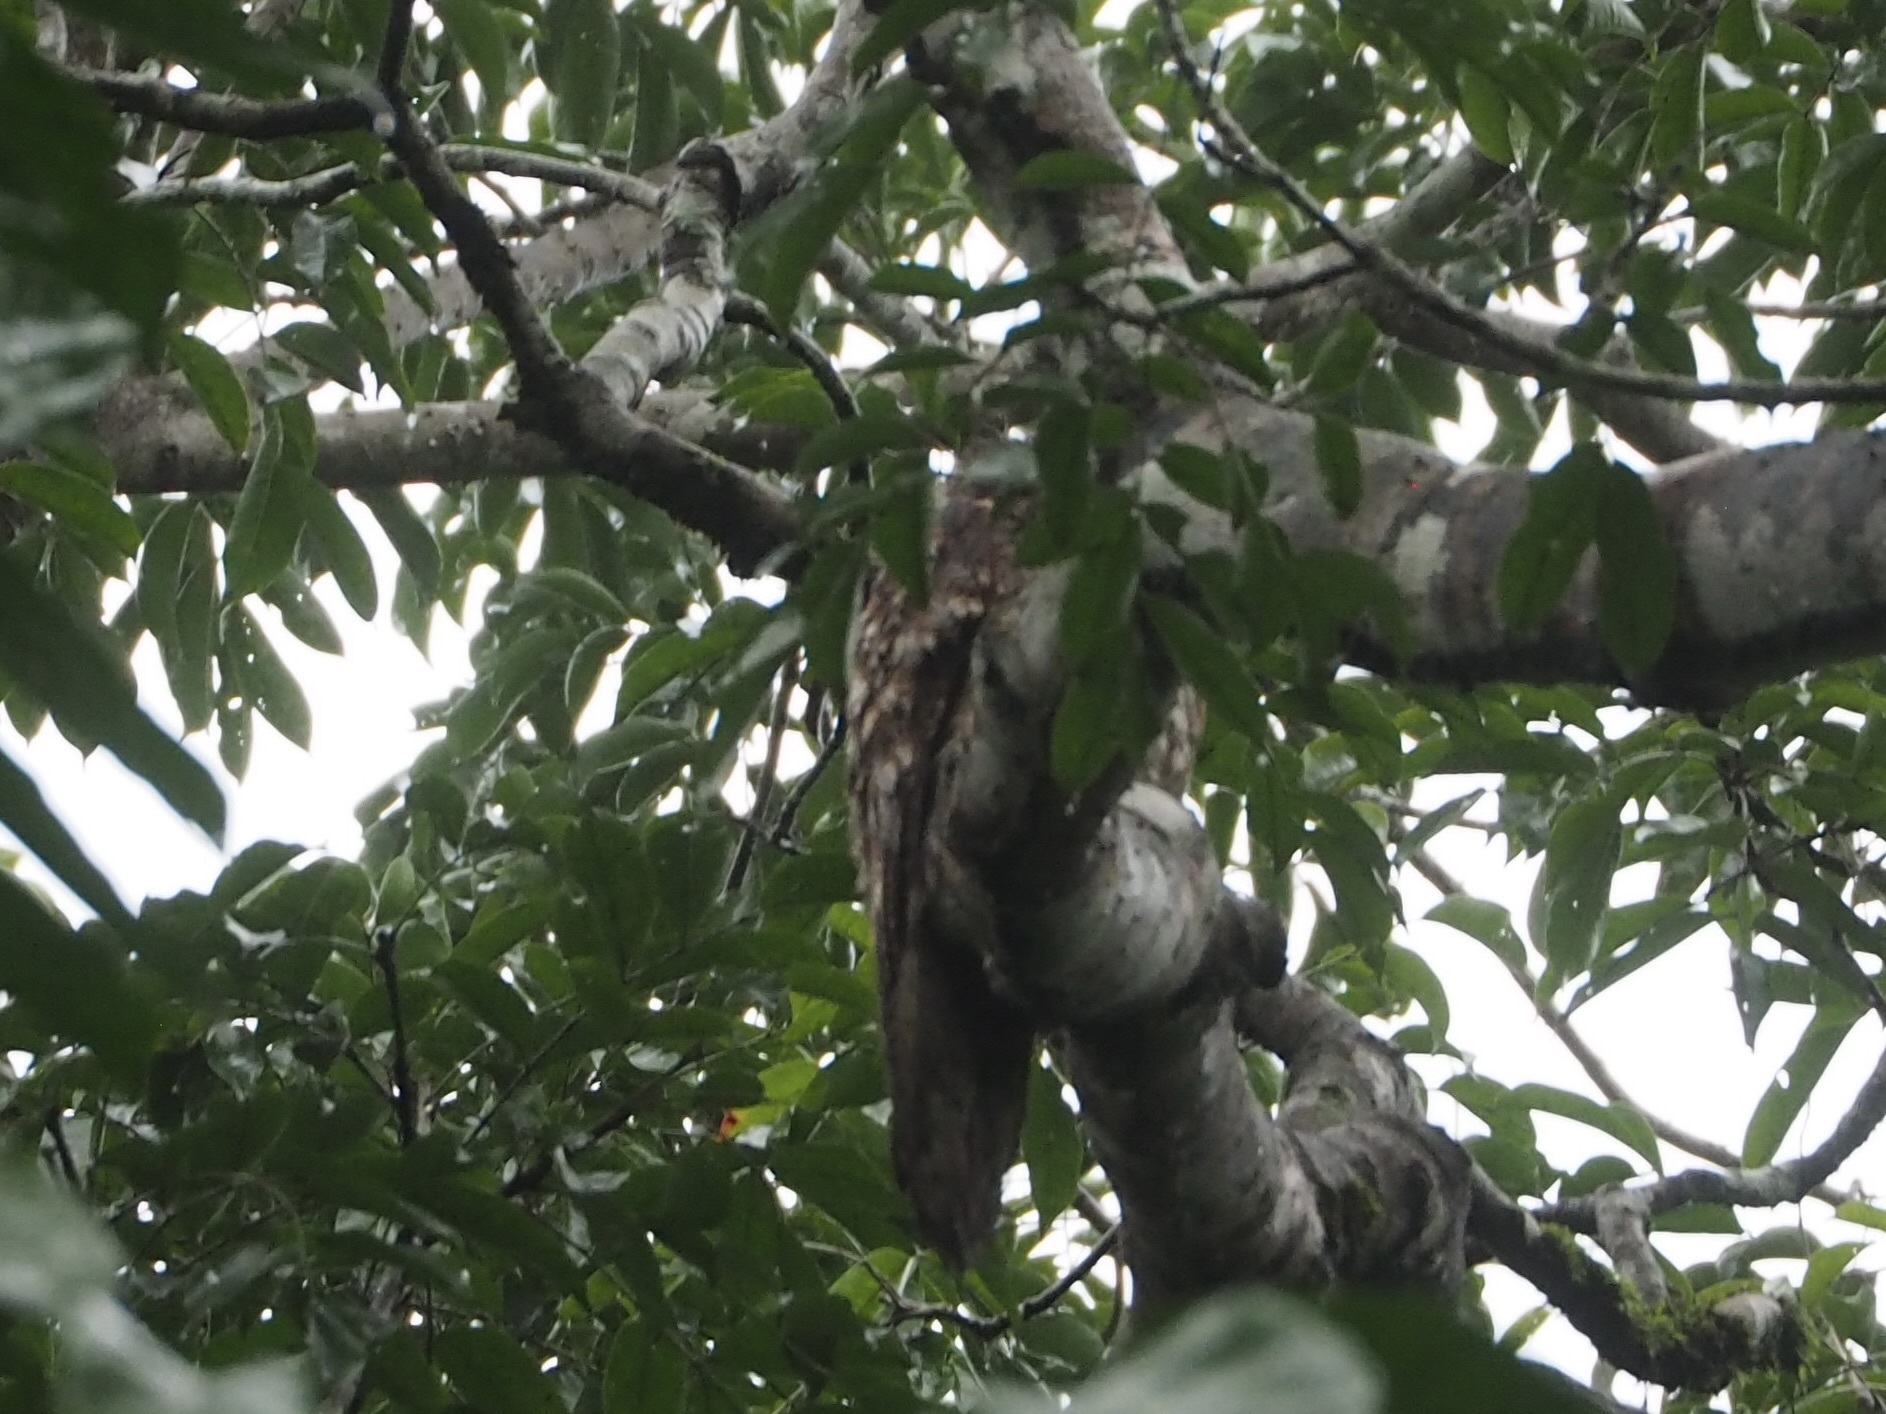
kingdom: Animalia
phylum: Chordata
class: Aves
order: Nyctibiiformes
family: Nyctibiidae
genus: Nyctibius
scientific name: Nyctibius griseus
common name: Common potoo
